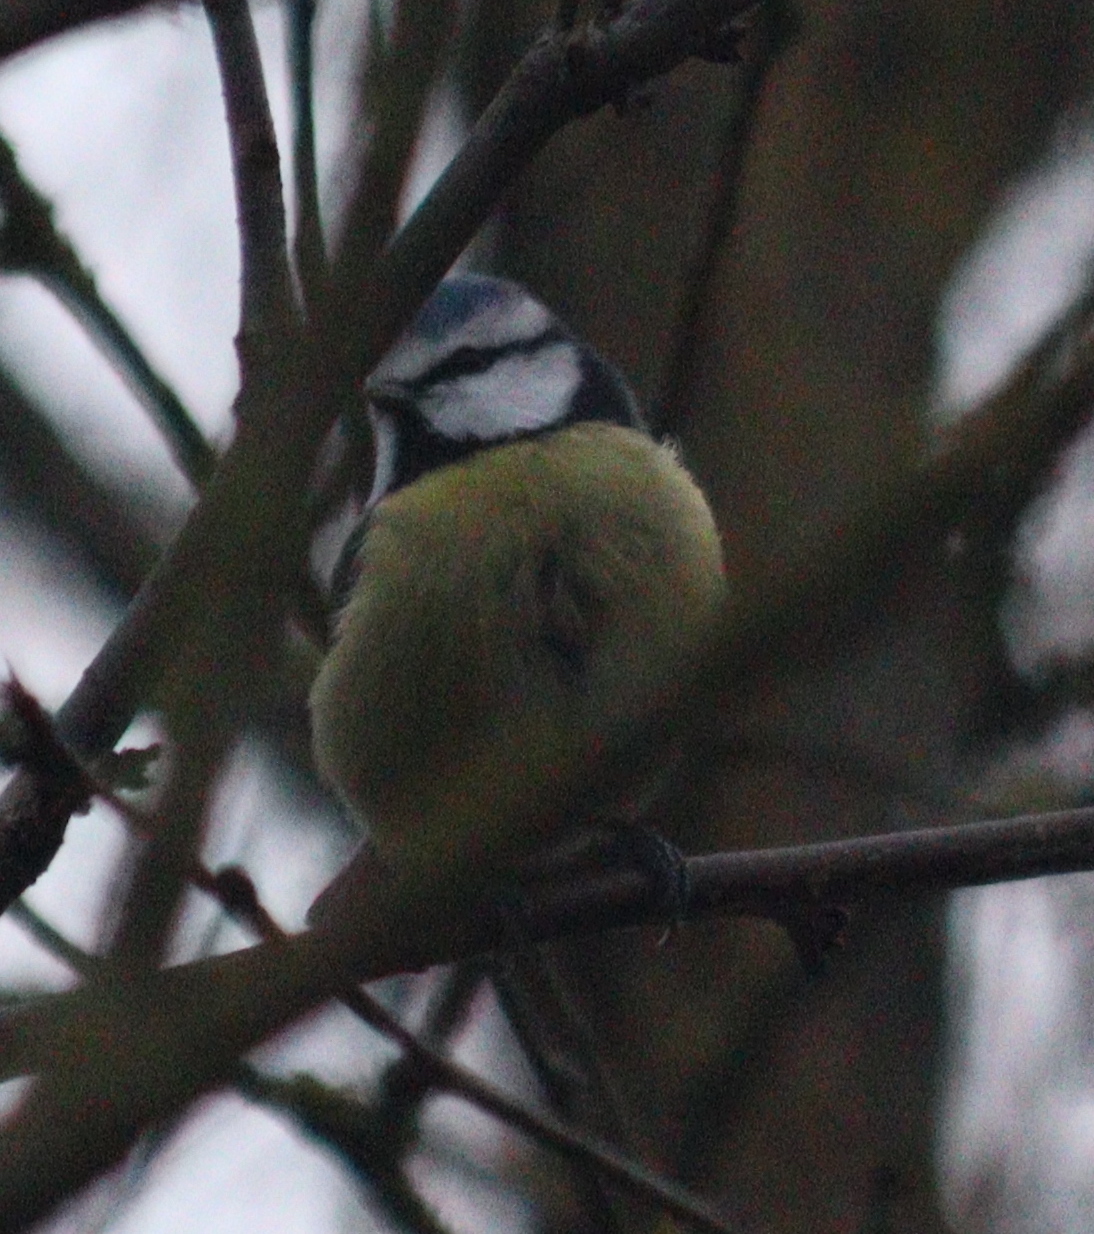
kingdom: Animalia
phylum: Chordata
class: Aves
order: Passeriformes
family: Paridae
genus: Cyanistes
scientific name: Cyanistes caeruleus
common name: Eurasian blue tit
